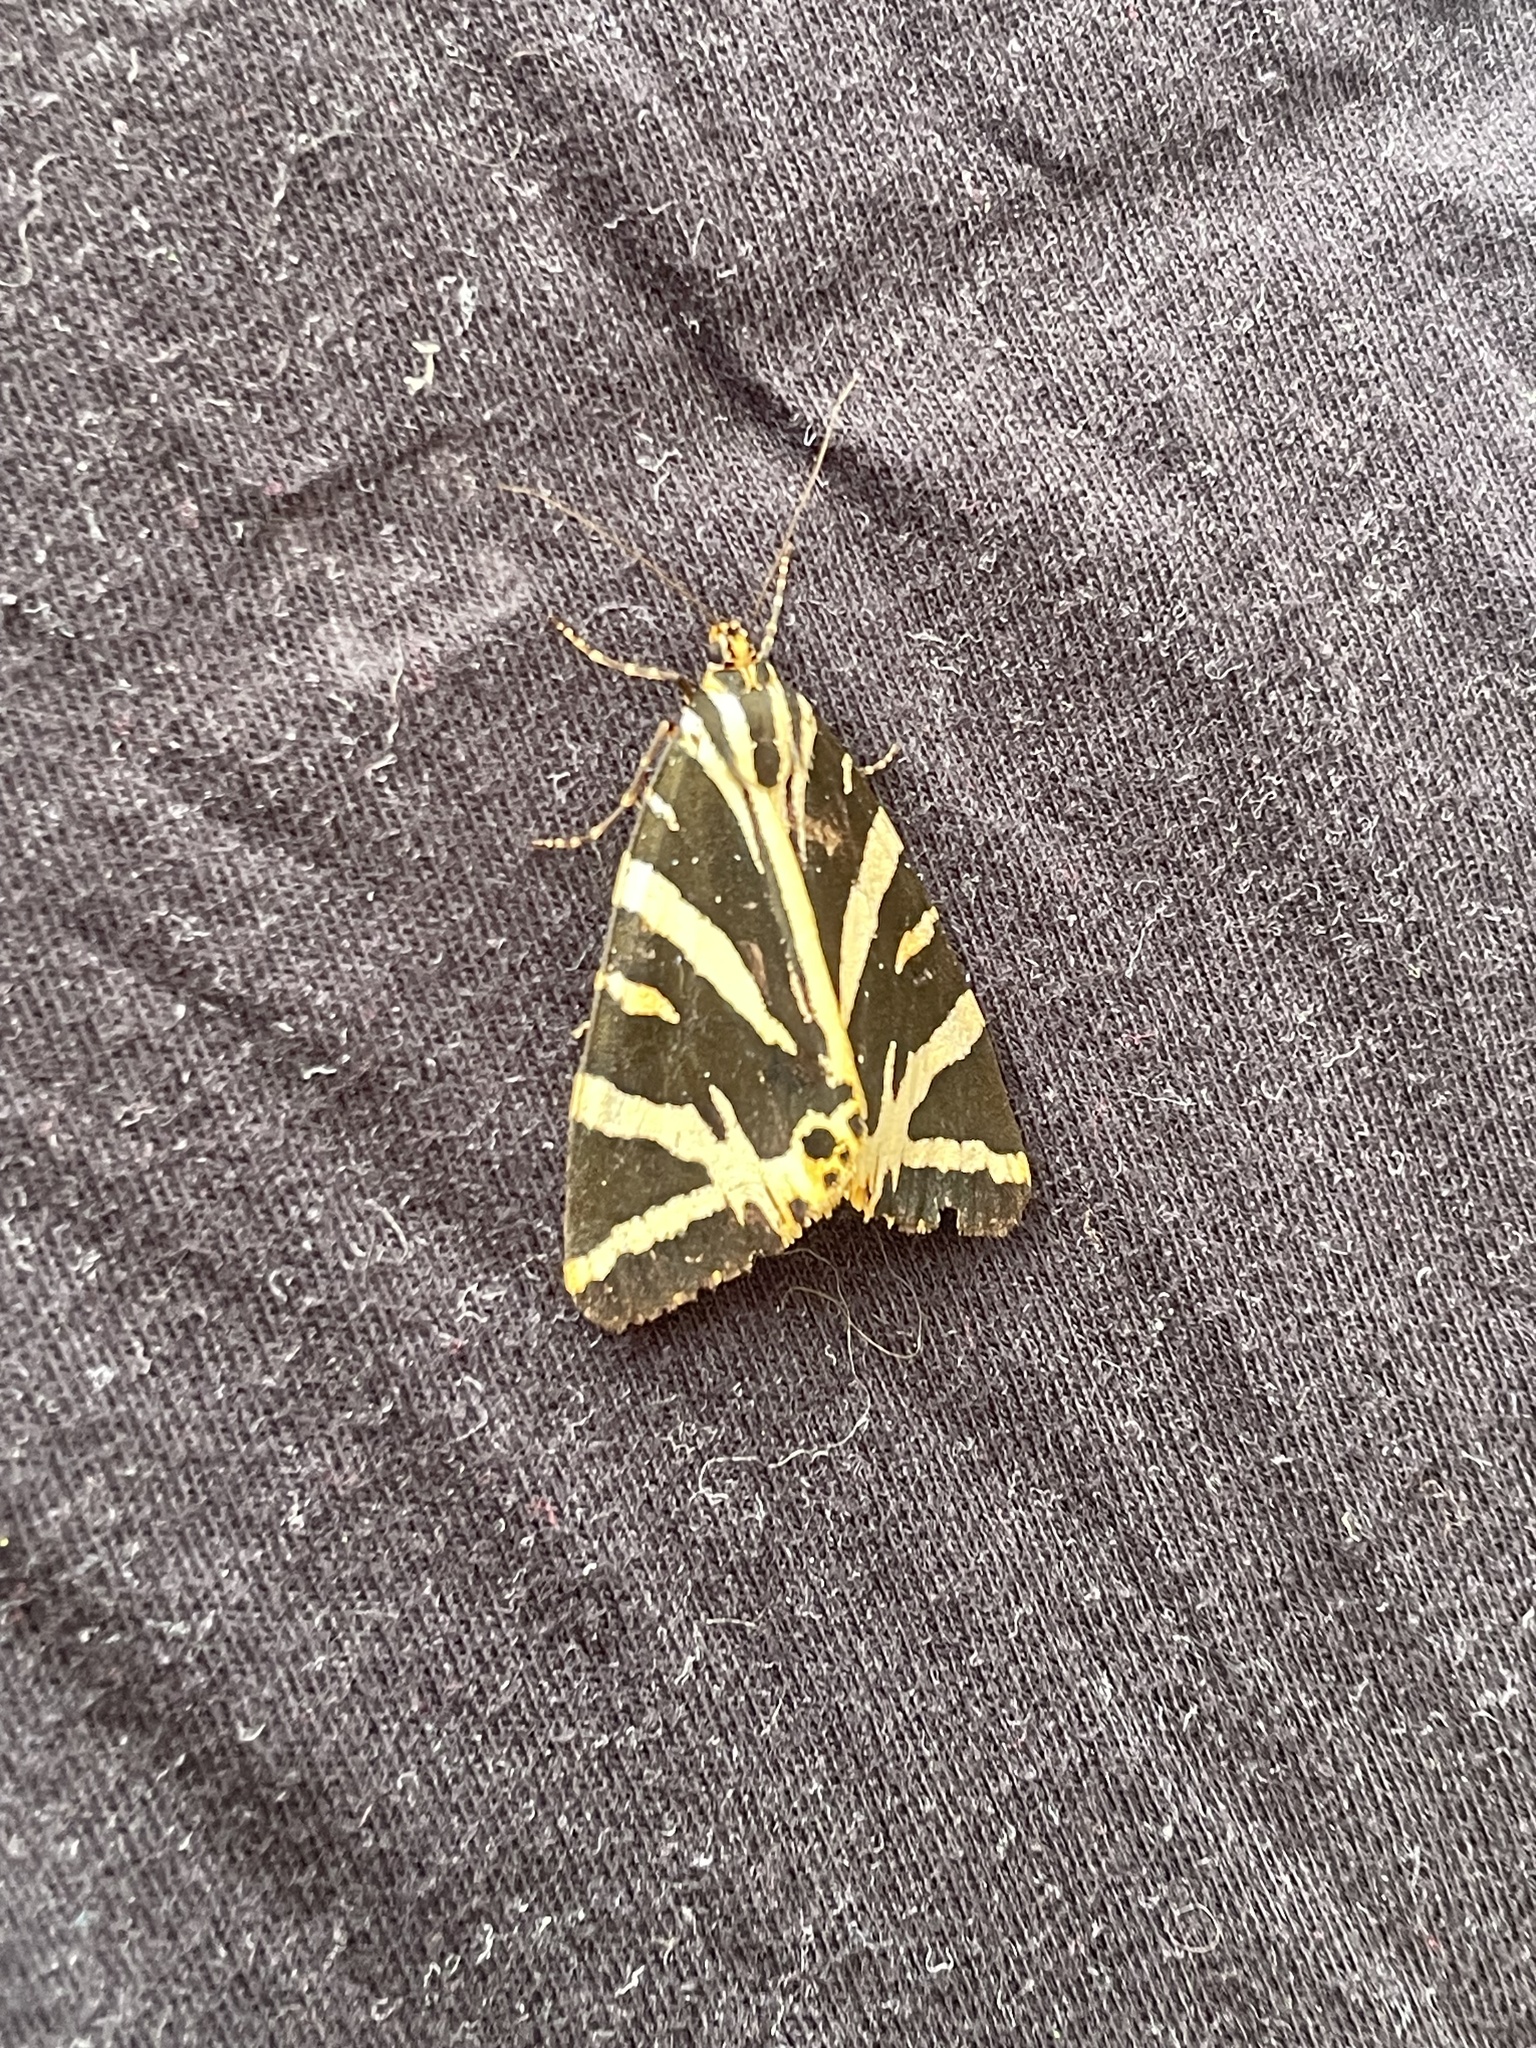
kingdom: Animalia
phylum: Arthropoda
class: Insecta
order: Lepidoptera
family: Erebidae
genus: Euplagia
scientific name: Euplagia quadripunctaria
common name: Jersey tiger
